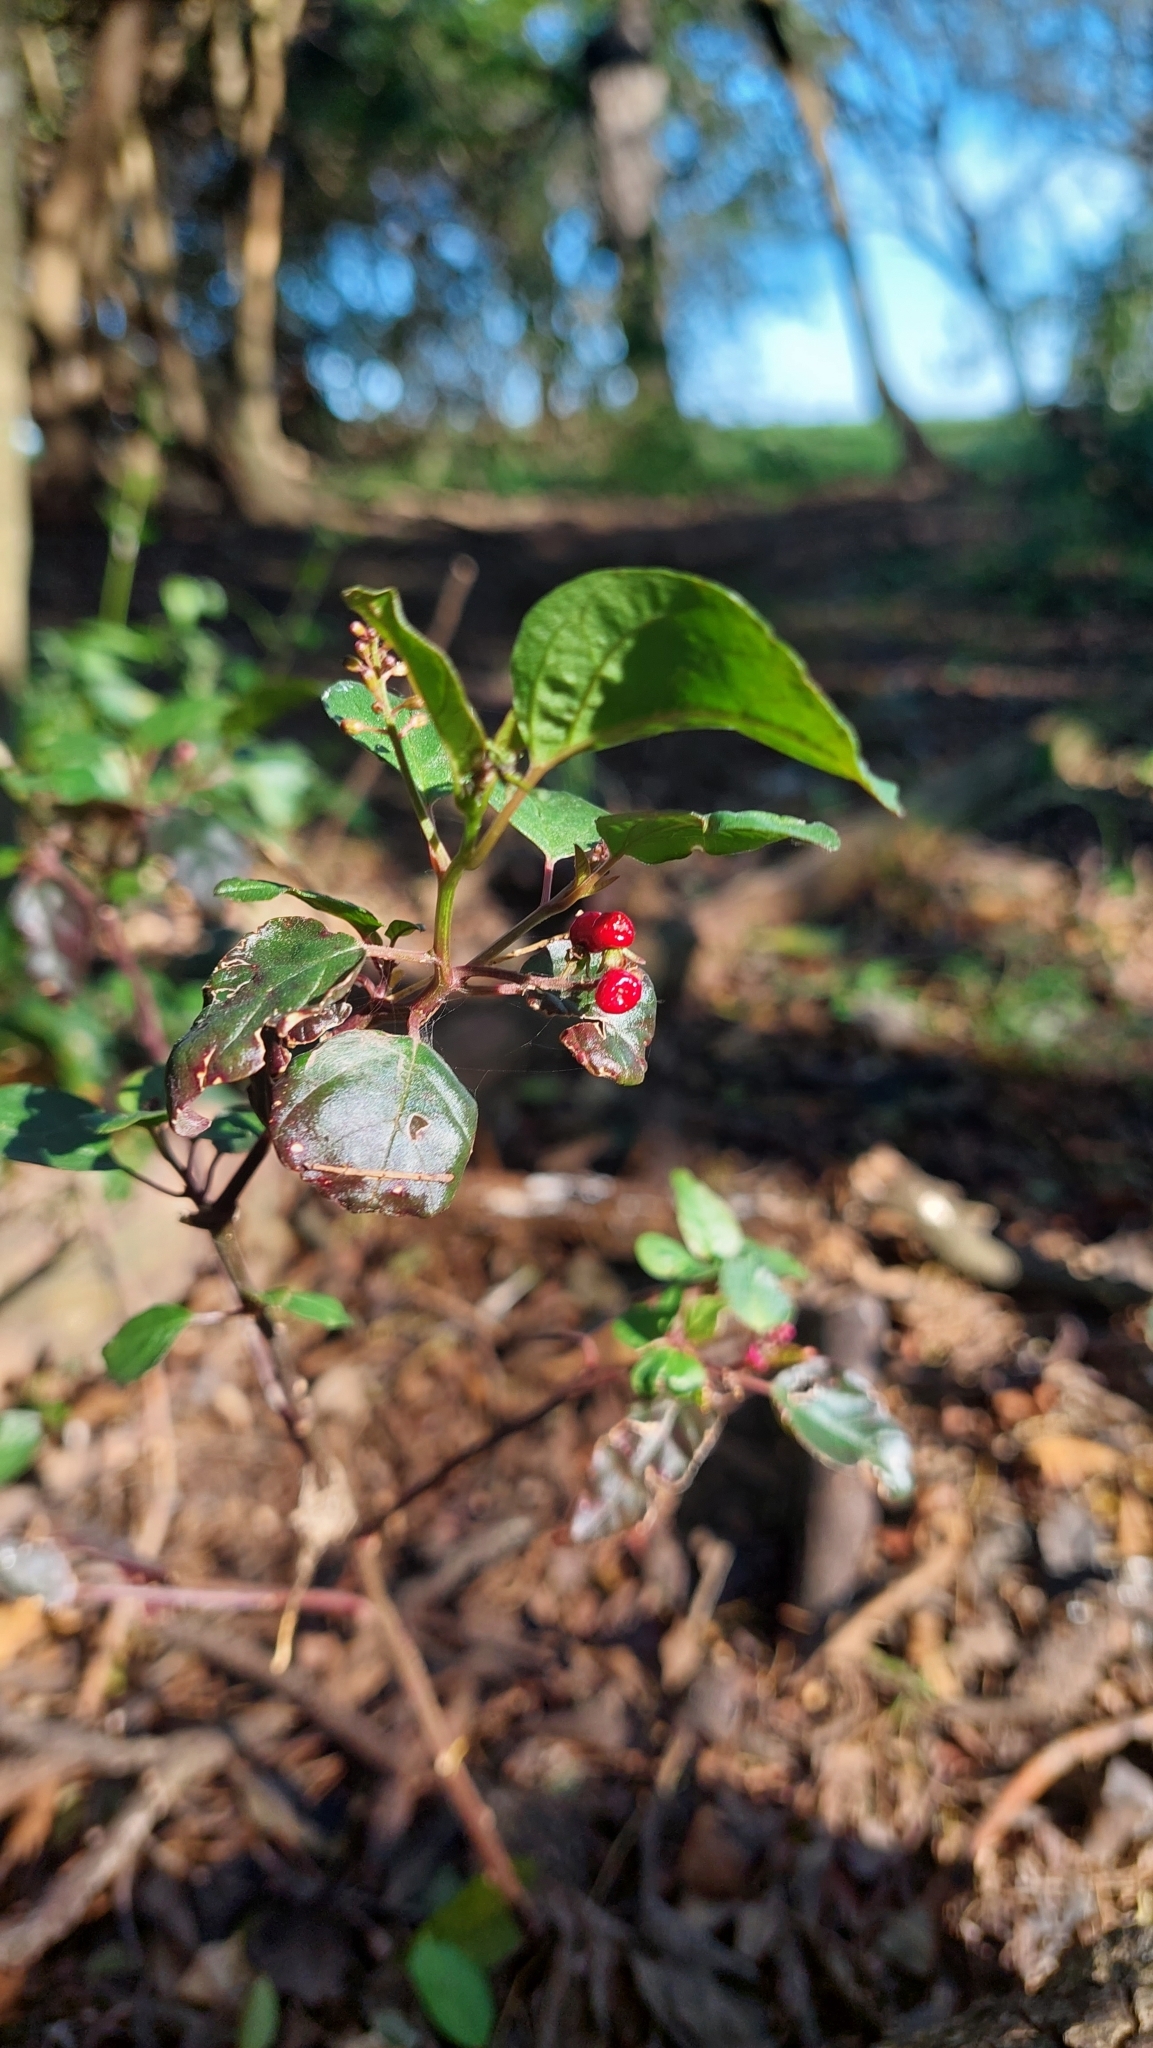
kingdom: Plantae
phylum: Tracheophyta
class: Magnoliopsida
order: Caryophyllales
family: Phytolaccaceae
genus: Rivina
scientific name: Rivina humilis
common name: Rougeplant
